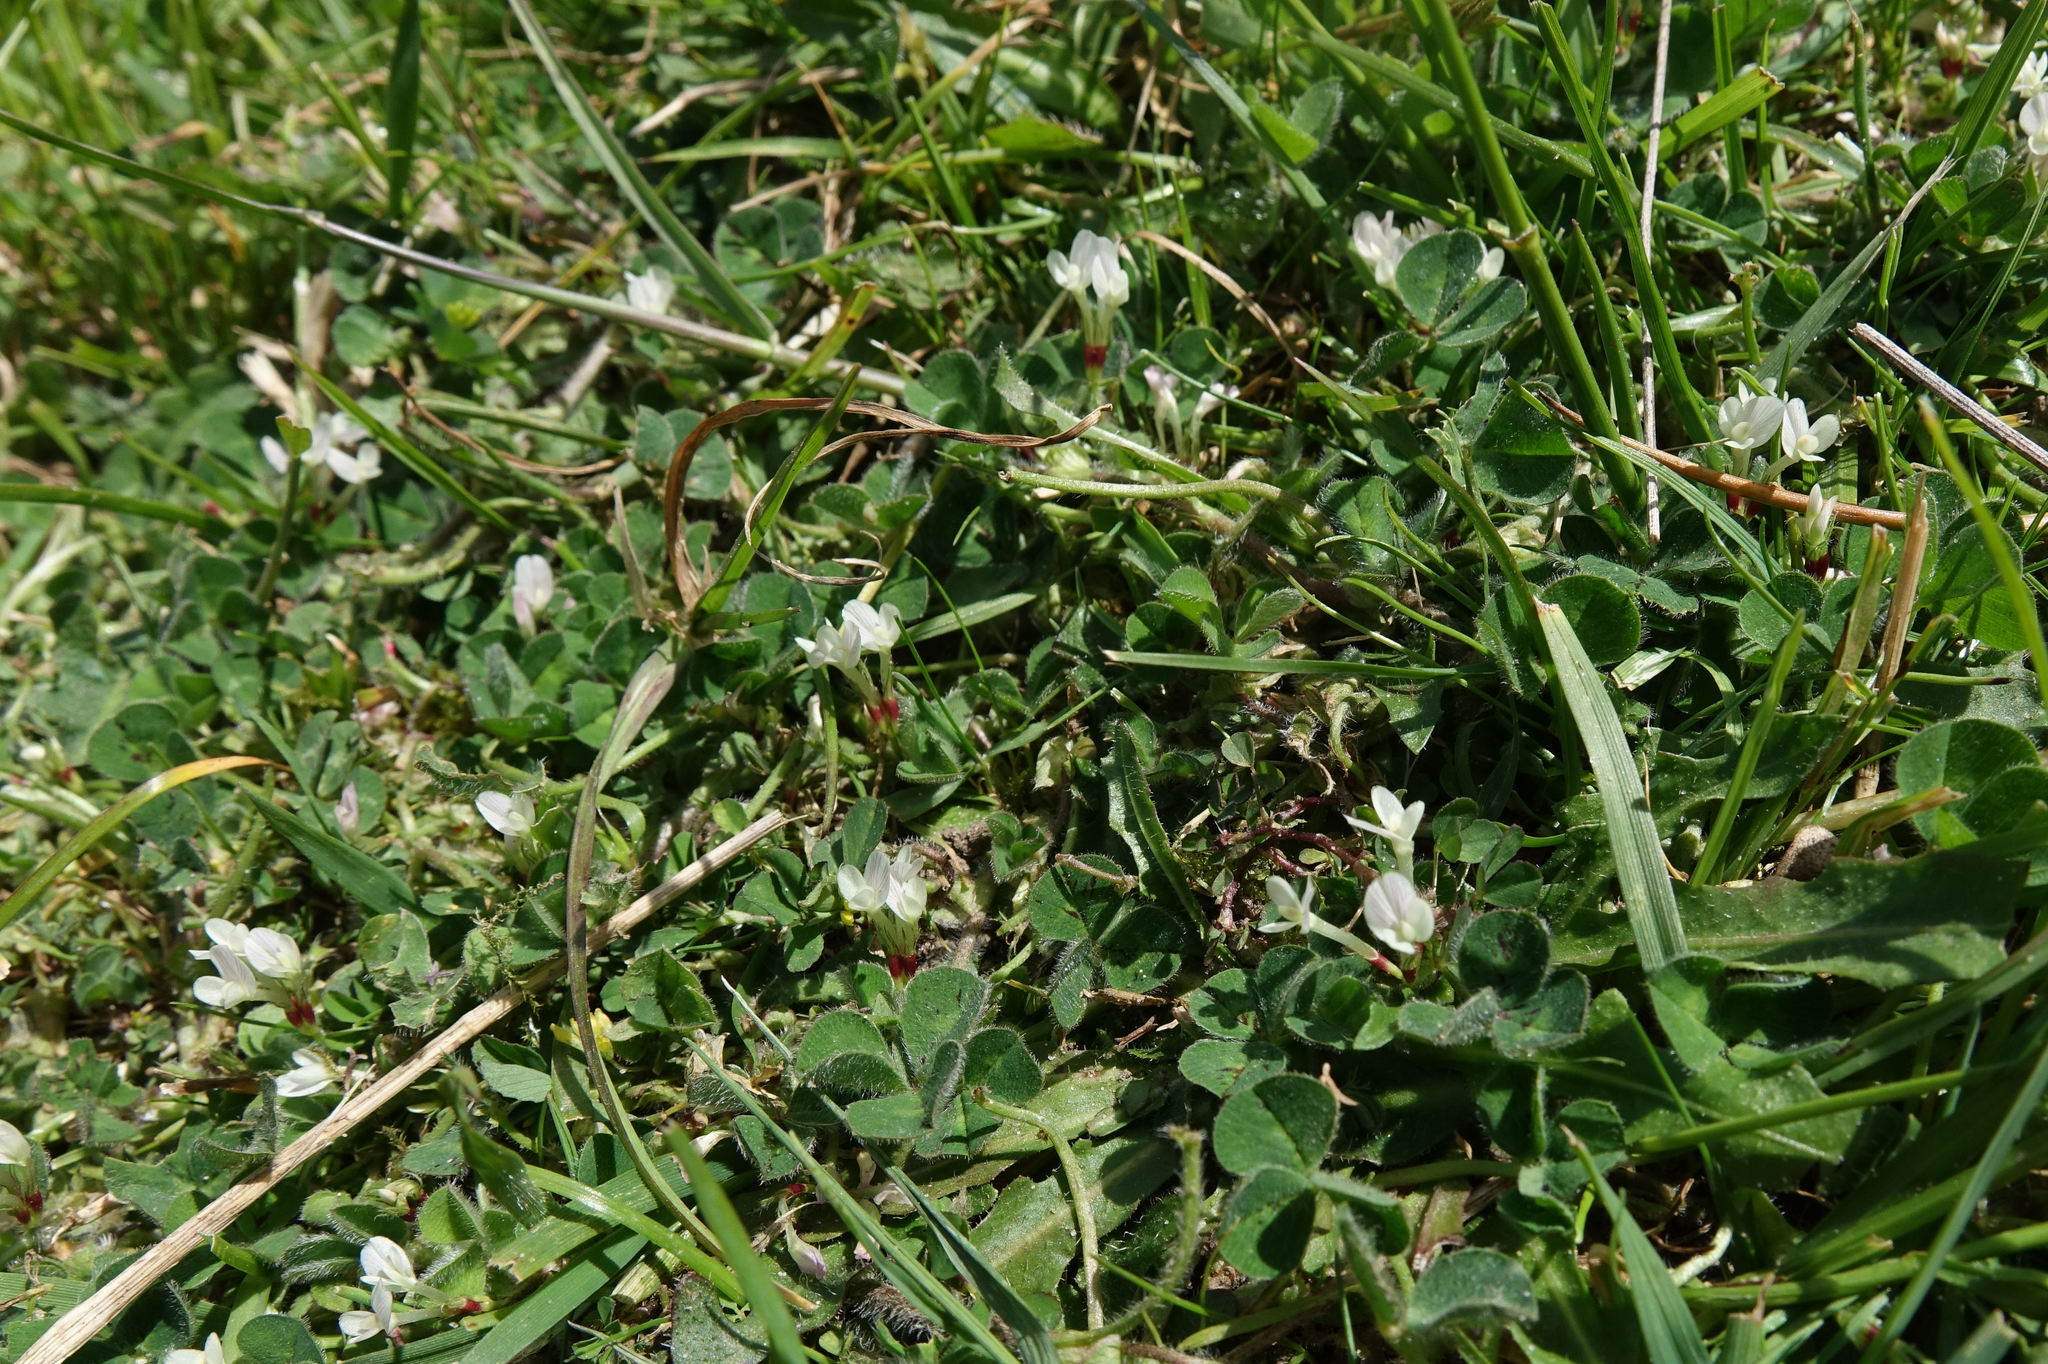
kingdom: Plantae
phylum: Tracheophyta
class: Magnoliopsida
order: Fabales
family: Fabaceae
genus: Trifolium
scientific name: Trifolium subterraneum
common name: Subterranean clover
